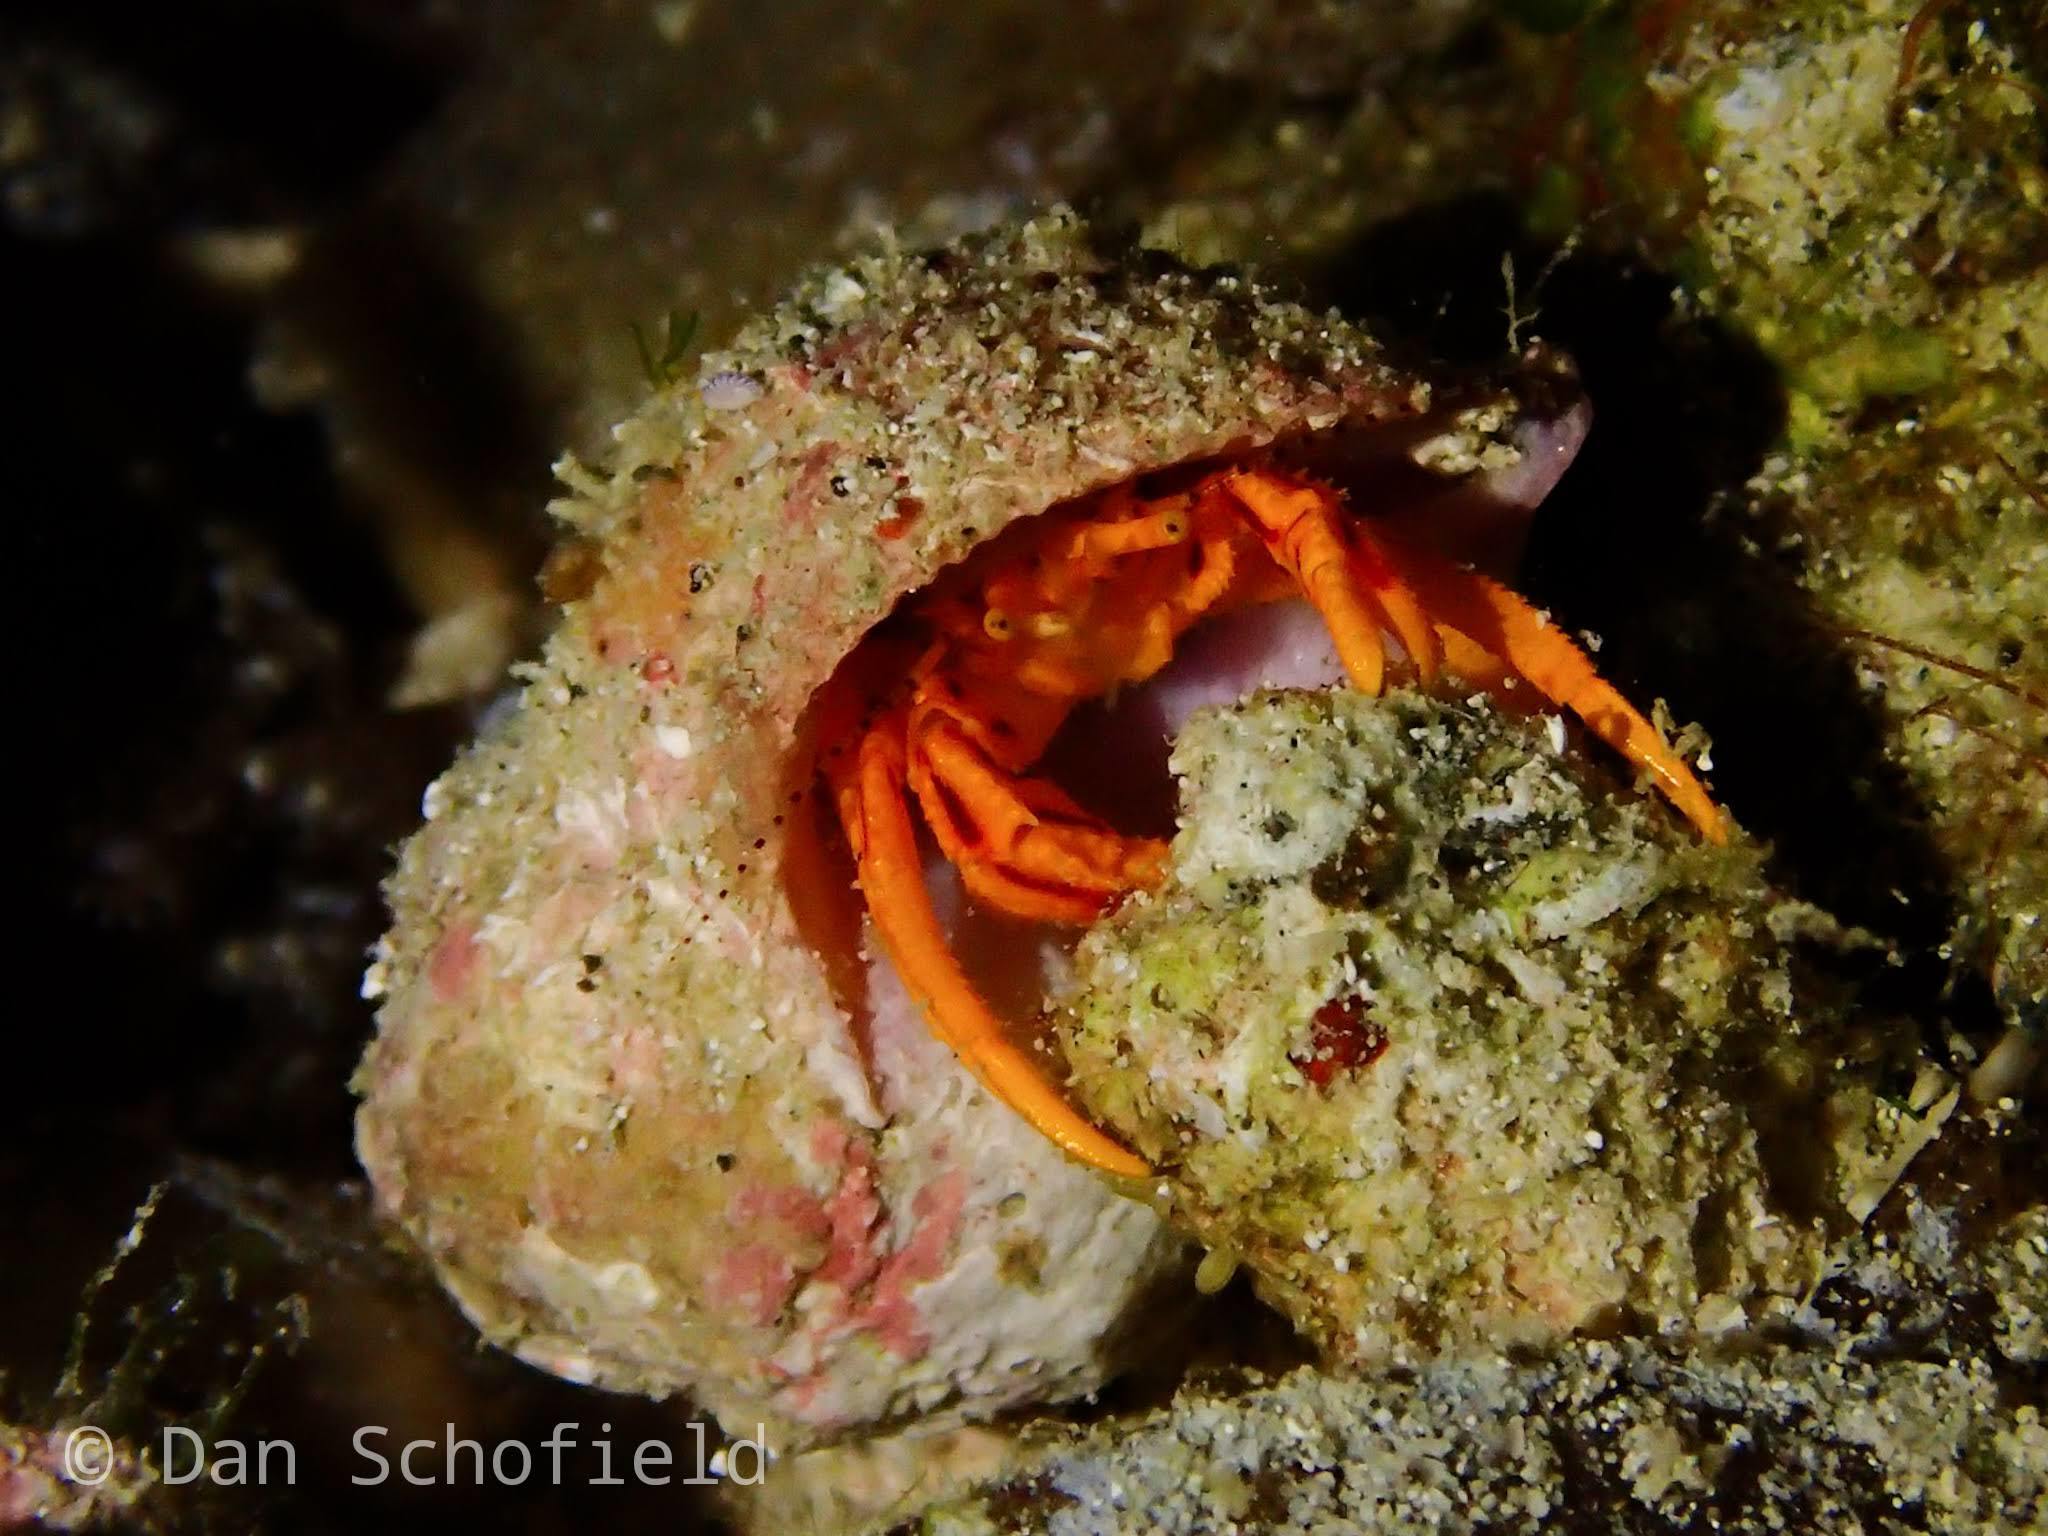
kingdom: Animalia
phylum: Arthropoda
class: Malacostraca
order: Decapoda
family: Diogenidae
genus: Pseudopaguristes
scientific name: Pseudopaguristes kuekenthali
